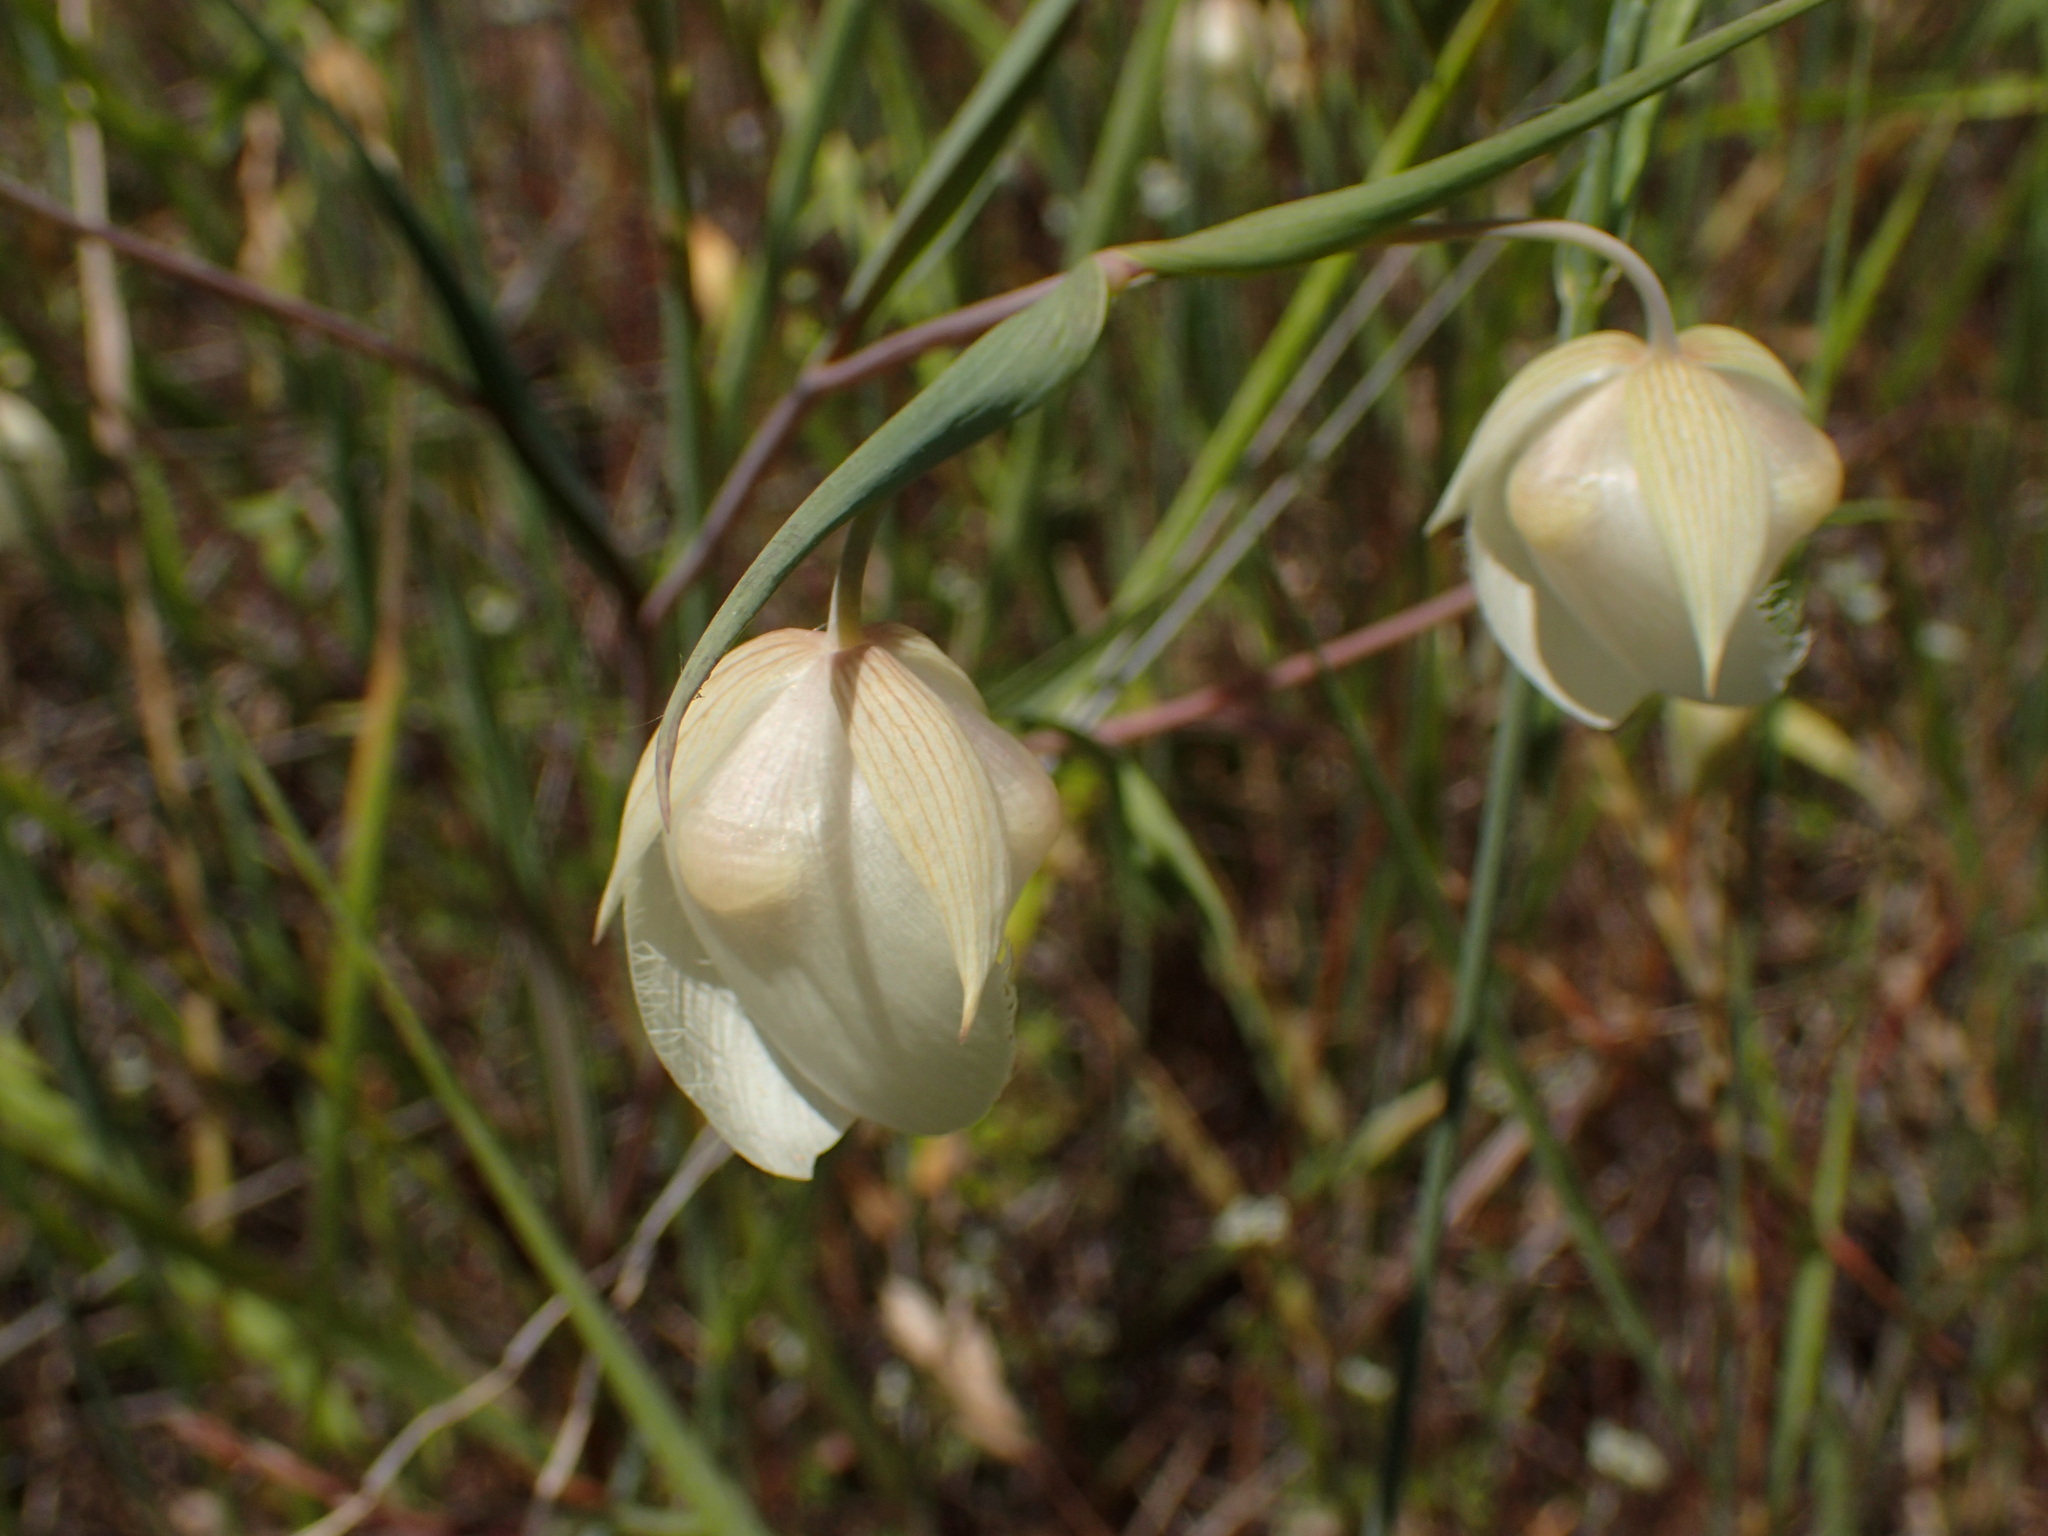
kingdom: Plantae
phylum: Tracheophyta
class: Liliopsida
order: Liliales
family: Liliaceae
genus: Calochortus
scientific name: Calochortus albus
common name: Fairy-lantern
